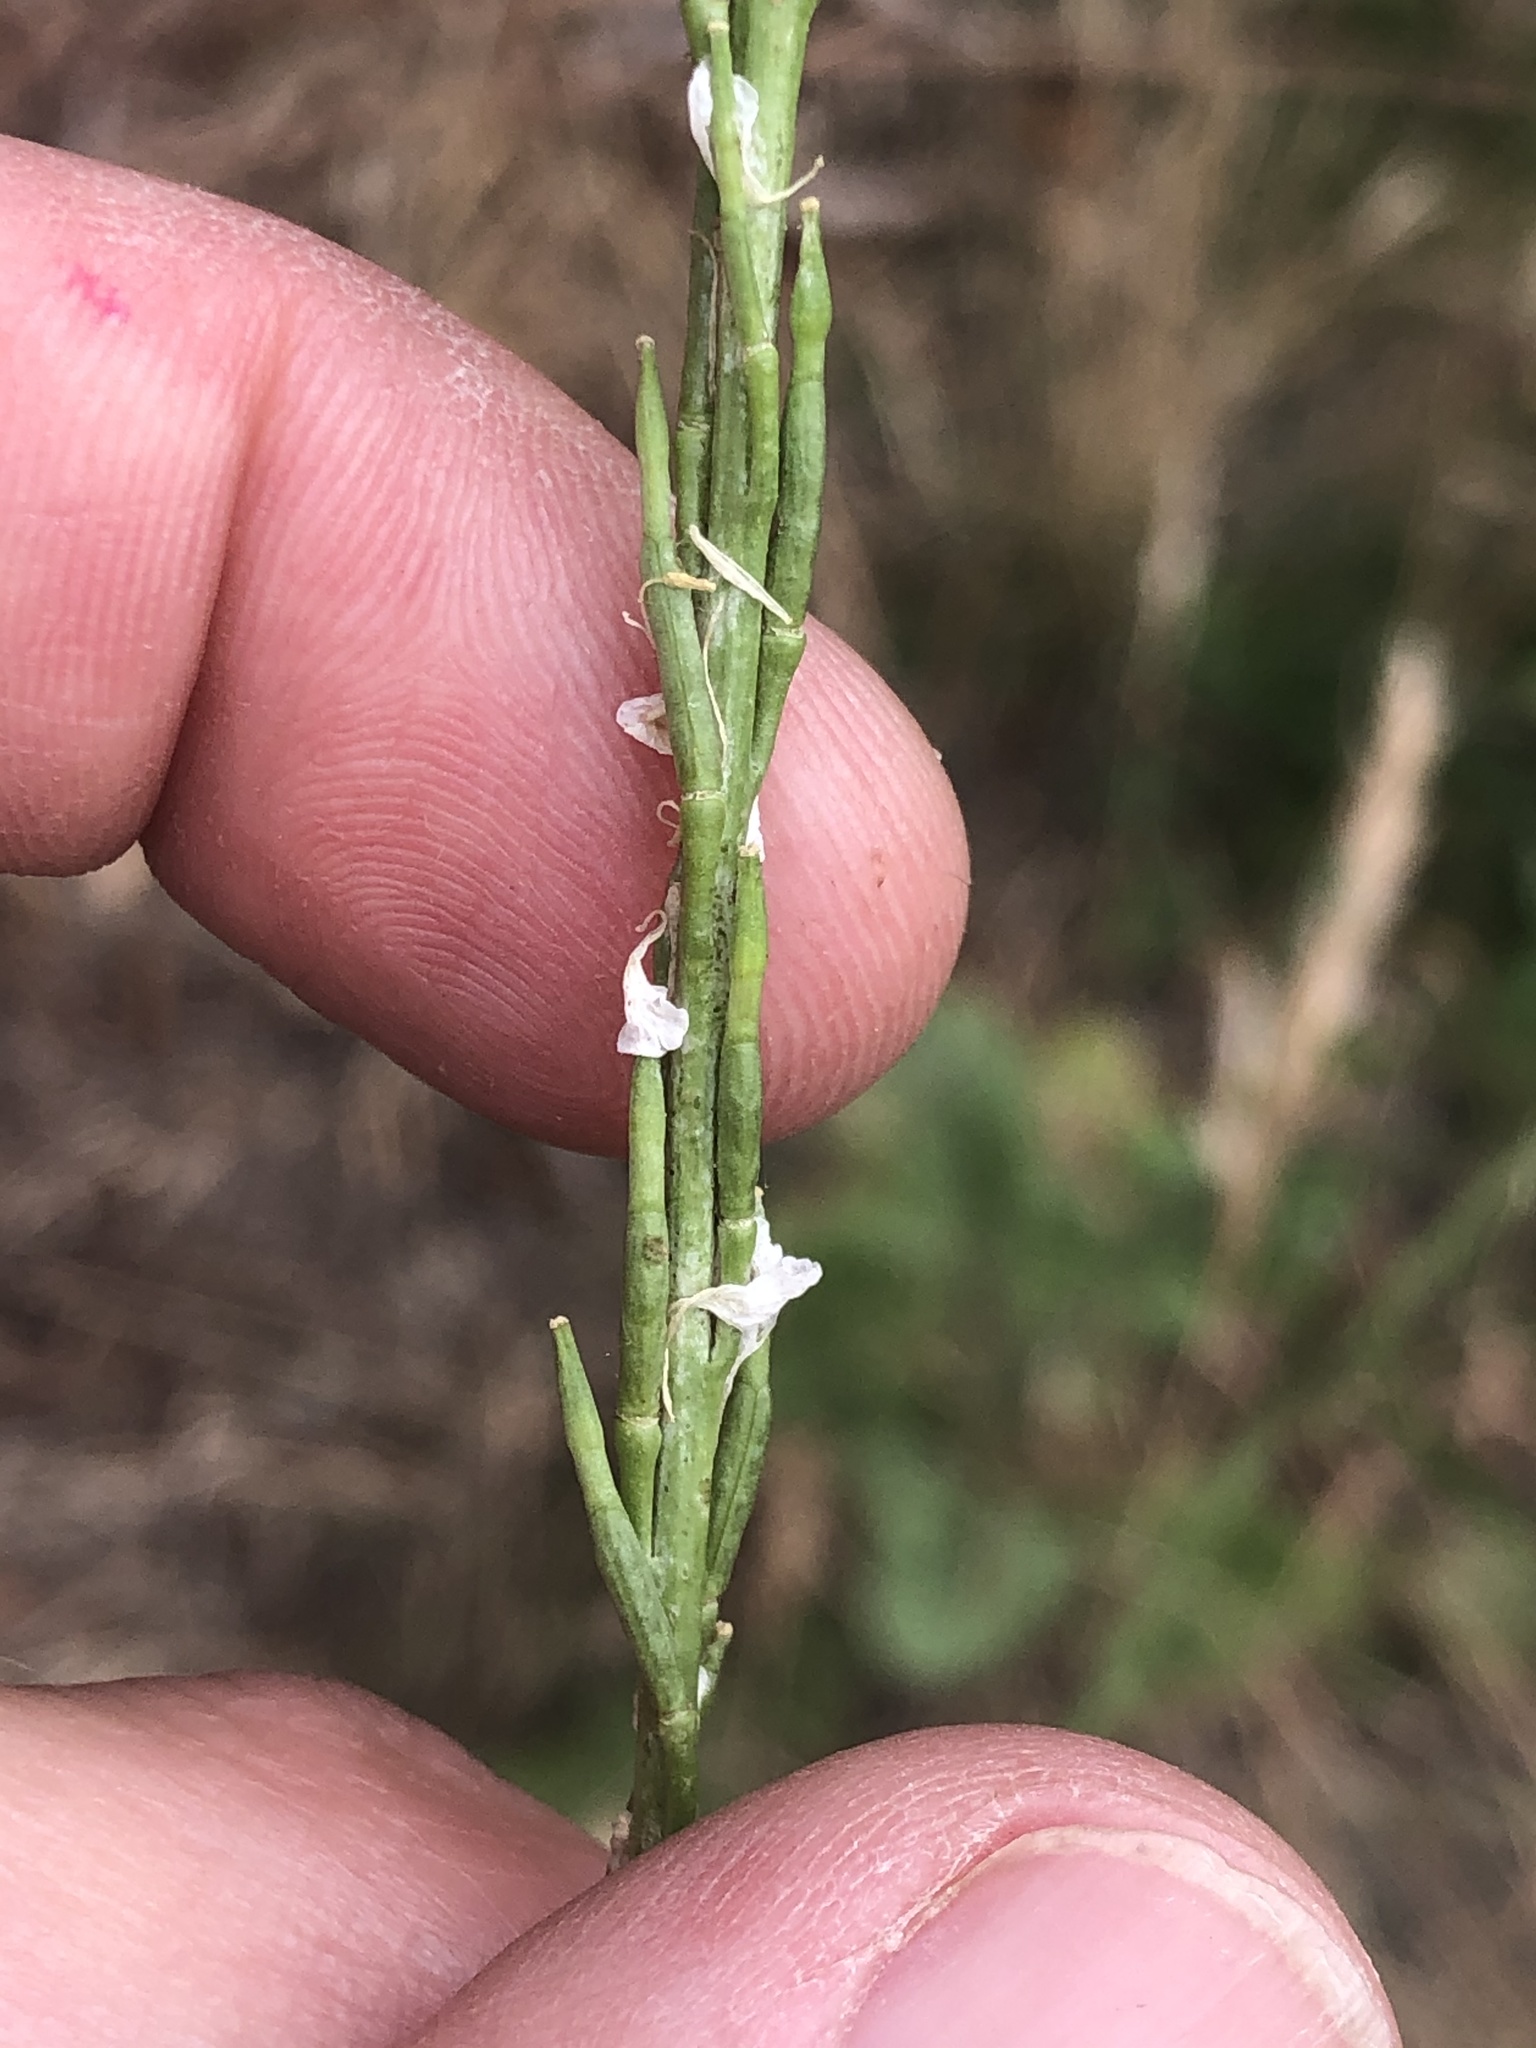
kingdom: Plantae
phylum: Tracheophyta
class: Magnoliopsida
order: Brassicales
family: Brassicaceae
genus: Hirschfeldia
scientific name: Hirschfeldia incana
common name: Hoary mustard
